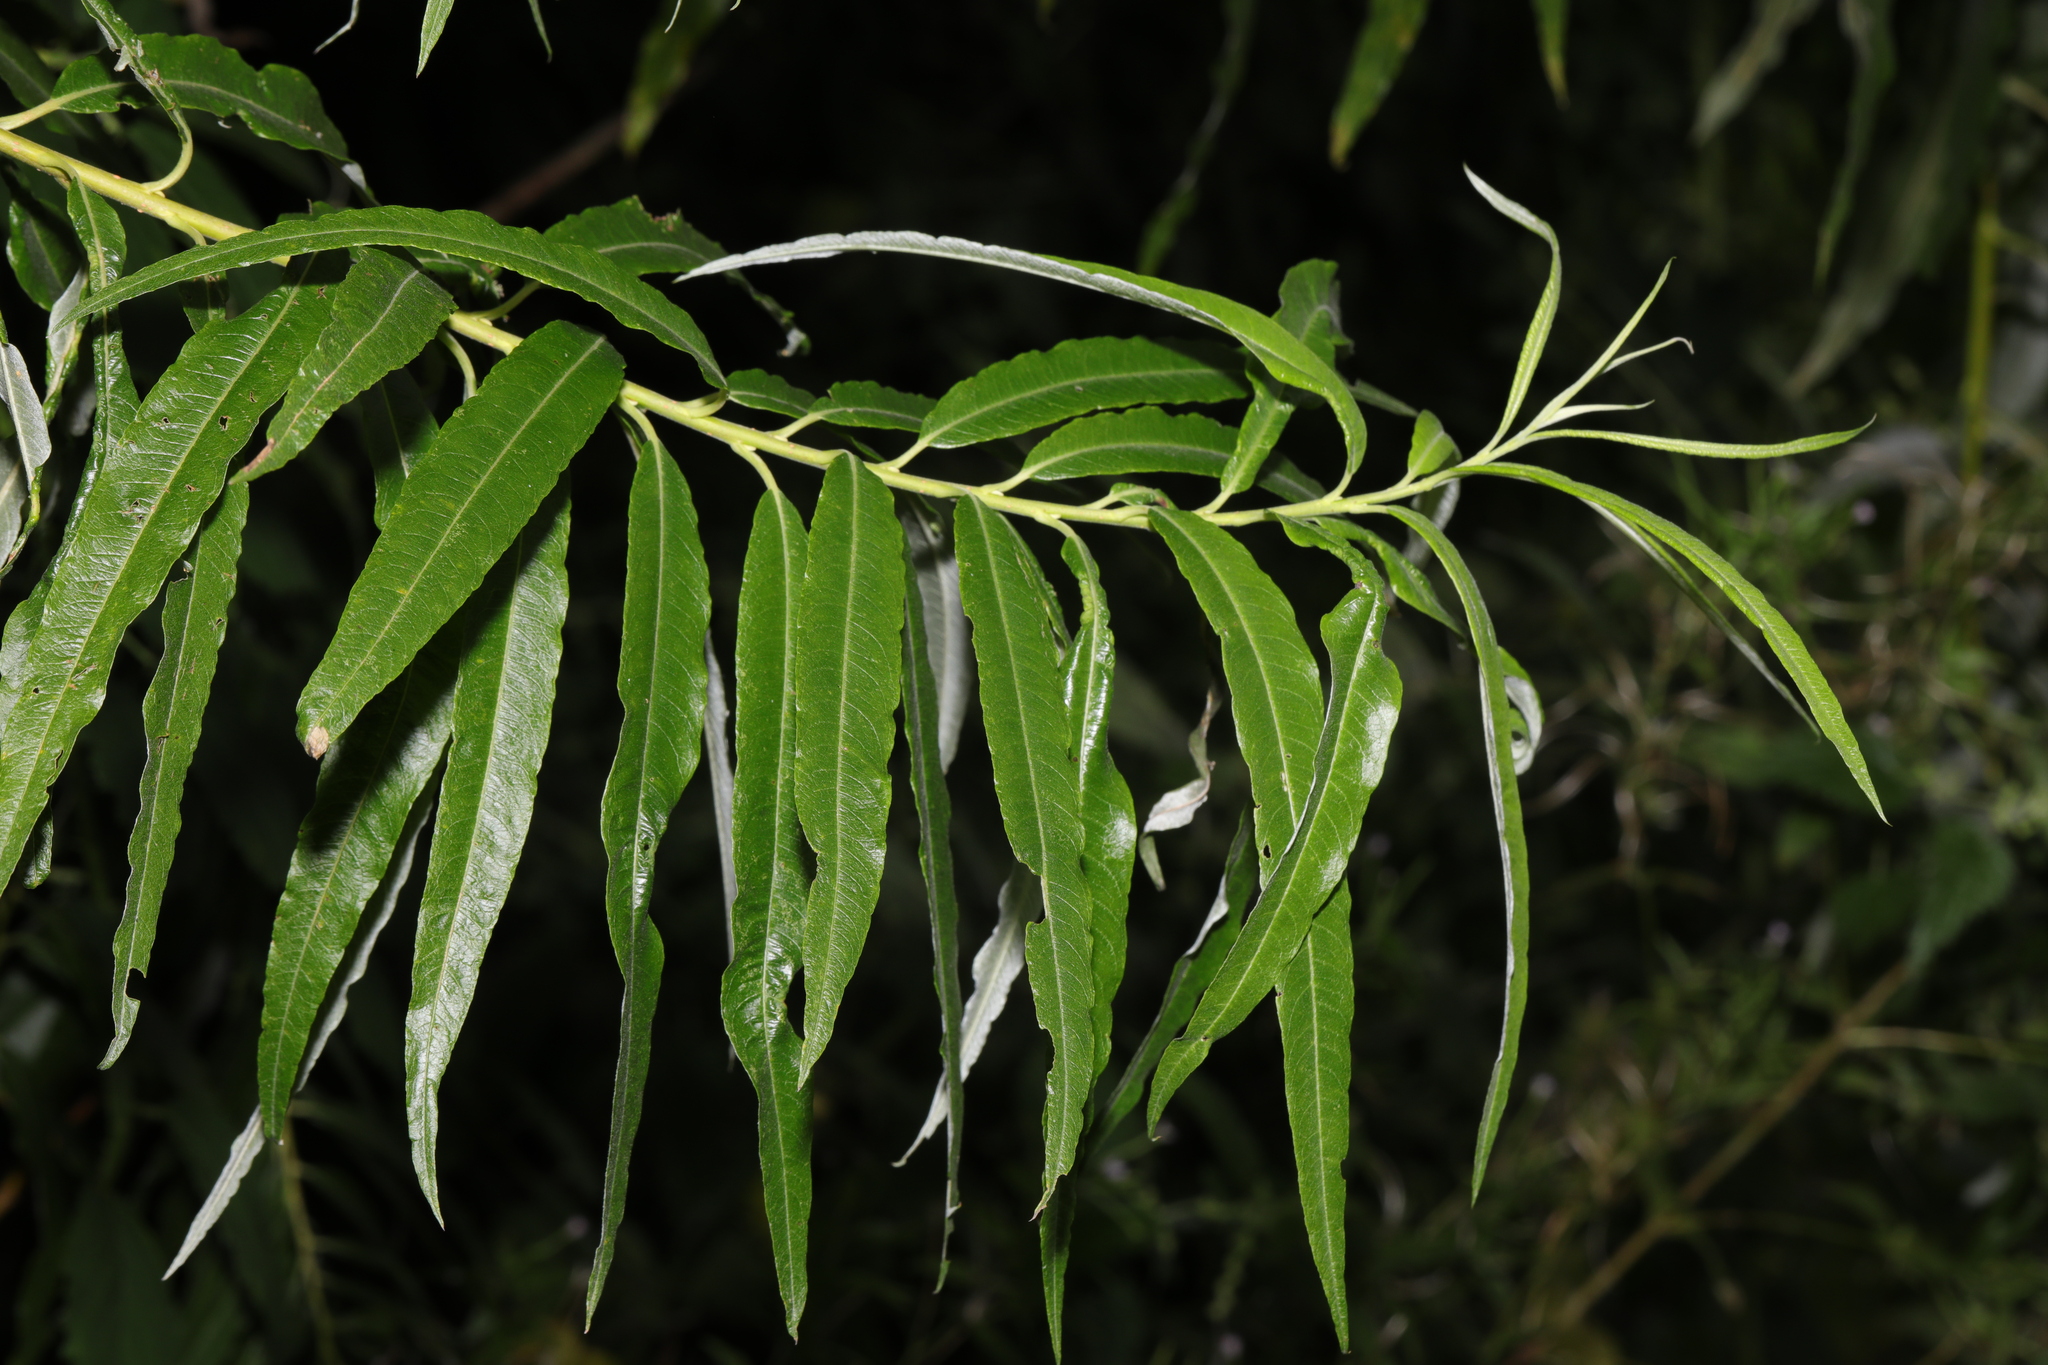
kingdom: Plantae
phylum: Tracheophyta
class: Magnoliopsida
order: Malpighiales
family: Salicaceae
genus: Salix
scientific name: Salix viminalis
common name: Osier
